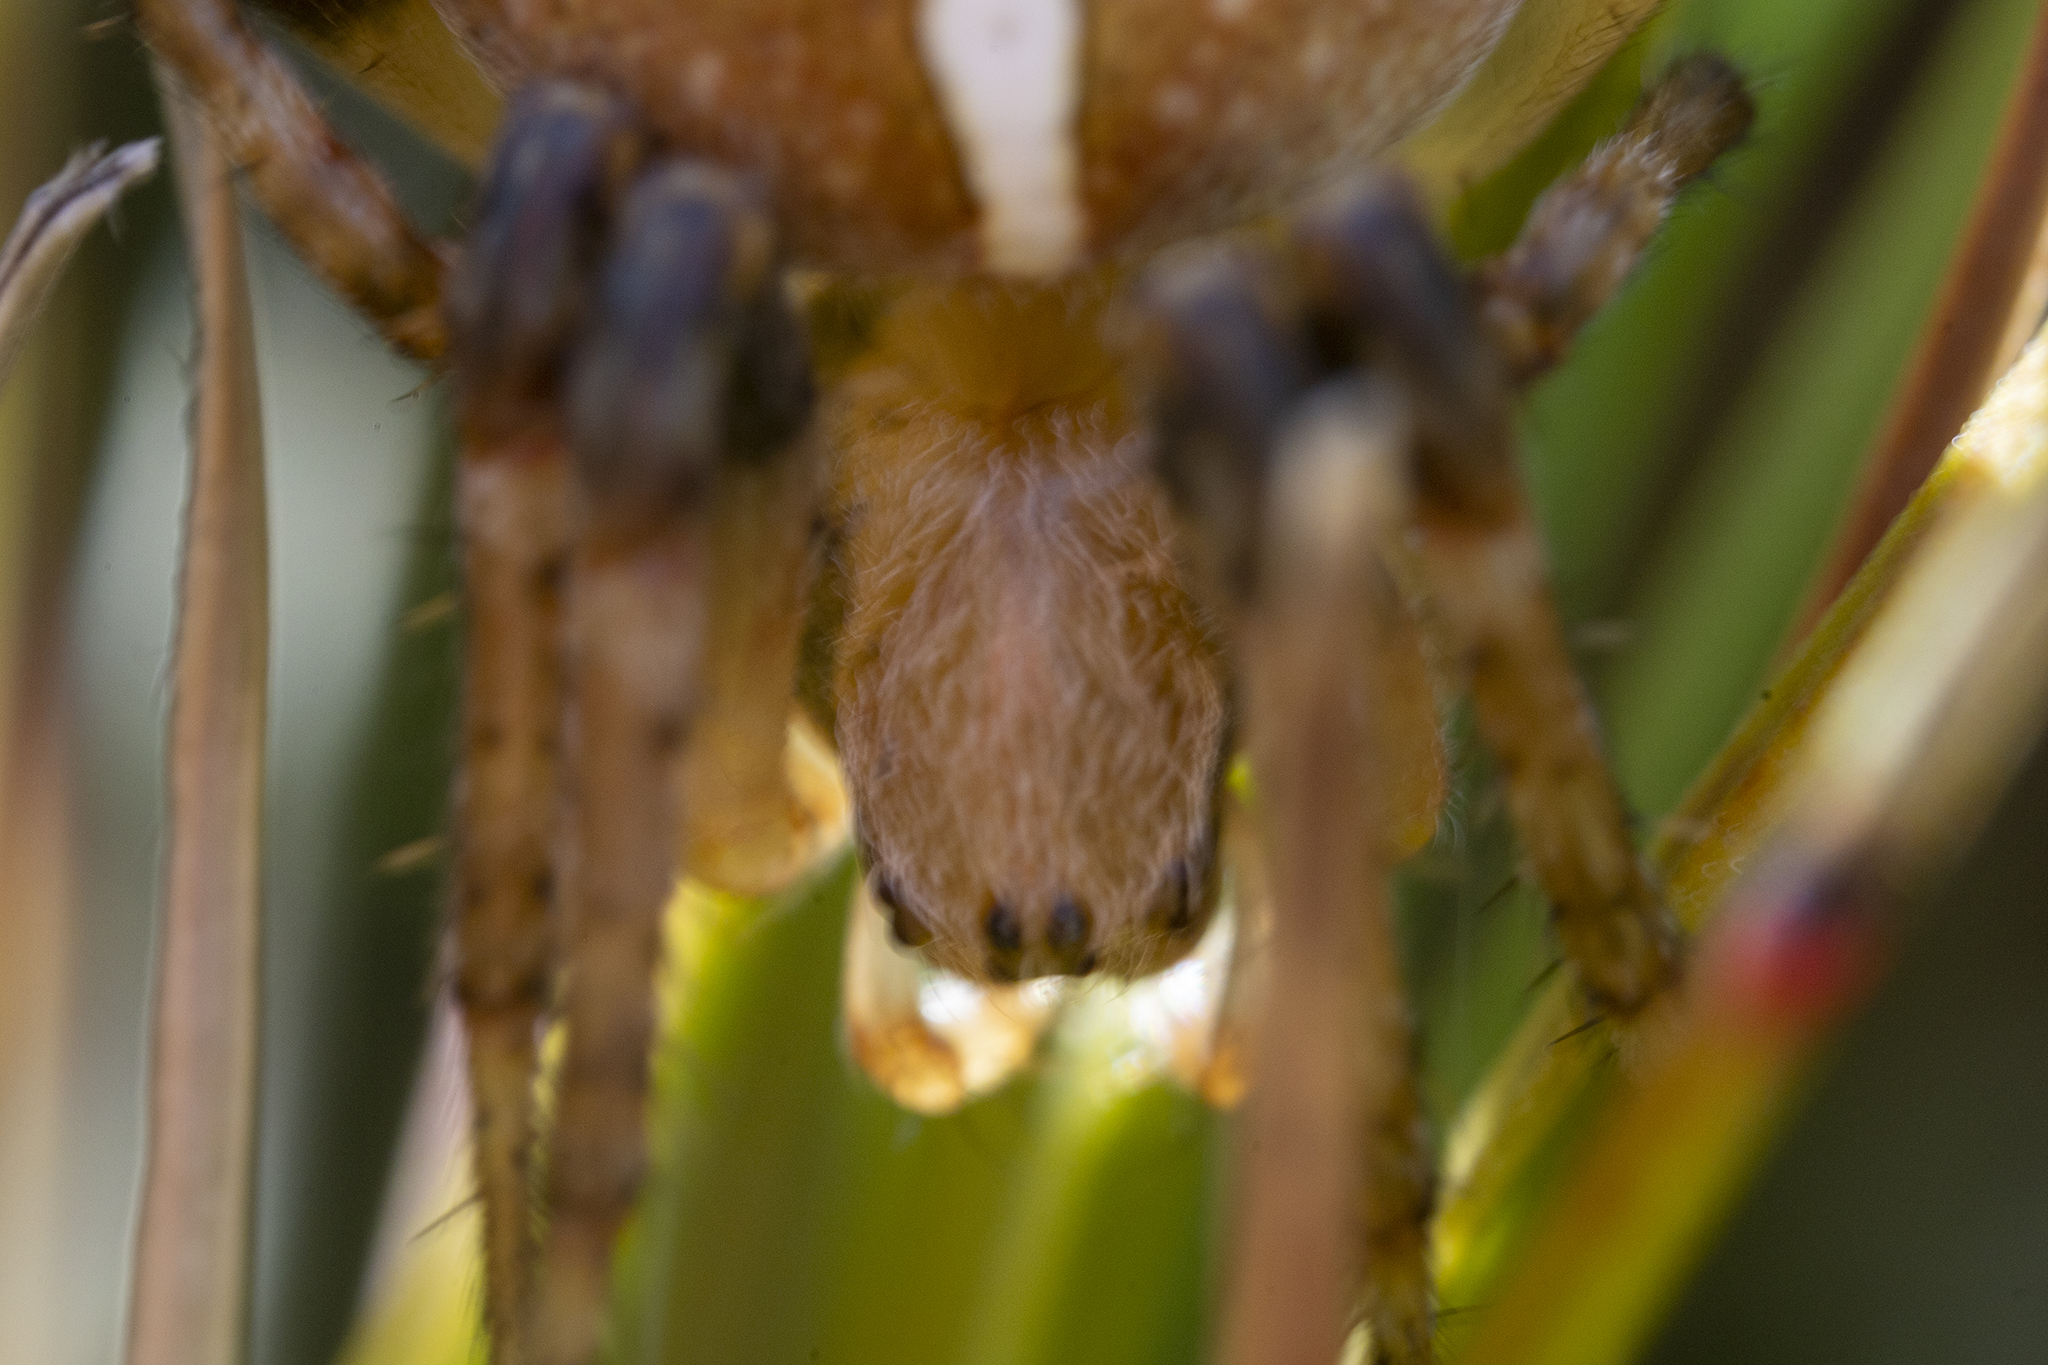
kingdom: Animalia
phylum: Arthropoda
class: Arachnida
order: Araneae
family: Araneidae
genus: Colaranea
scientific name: Colaranea brunnea
